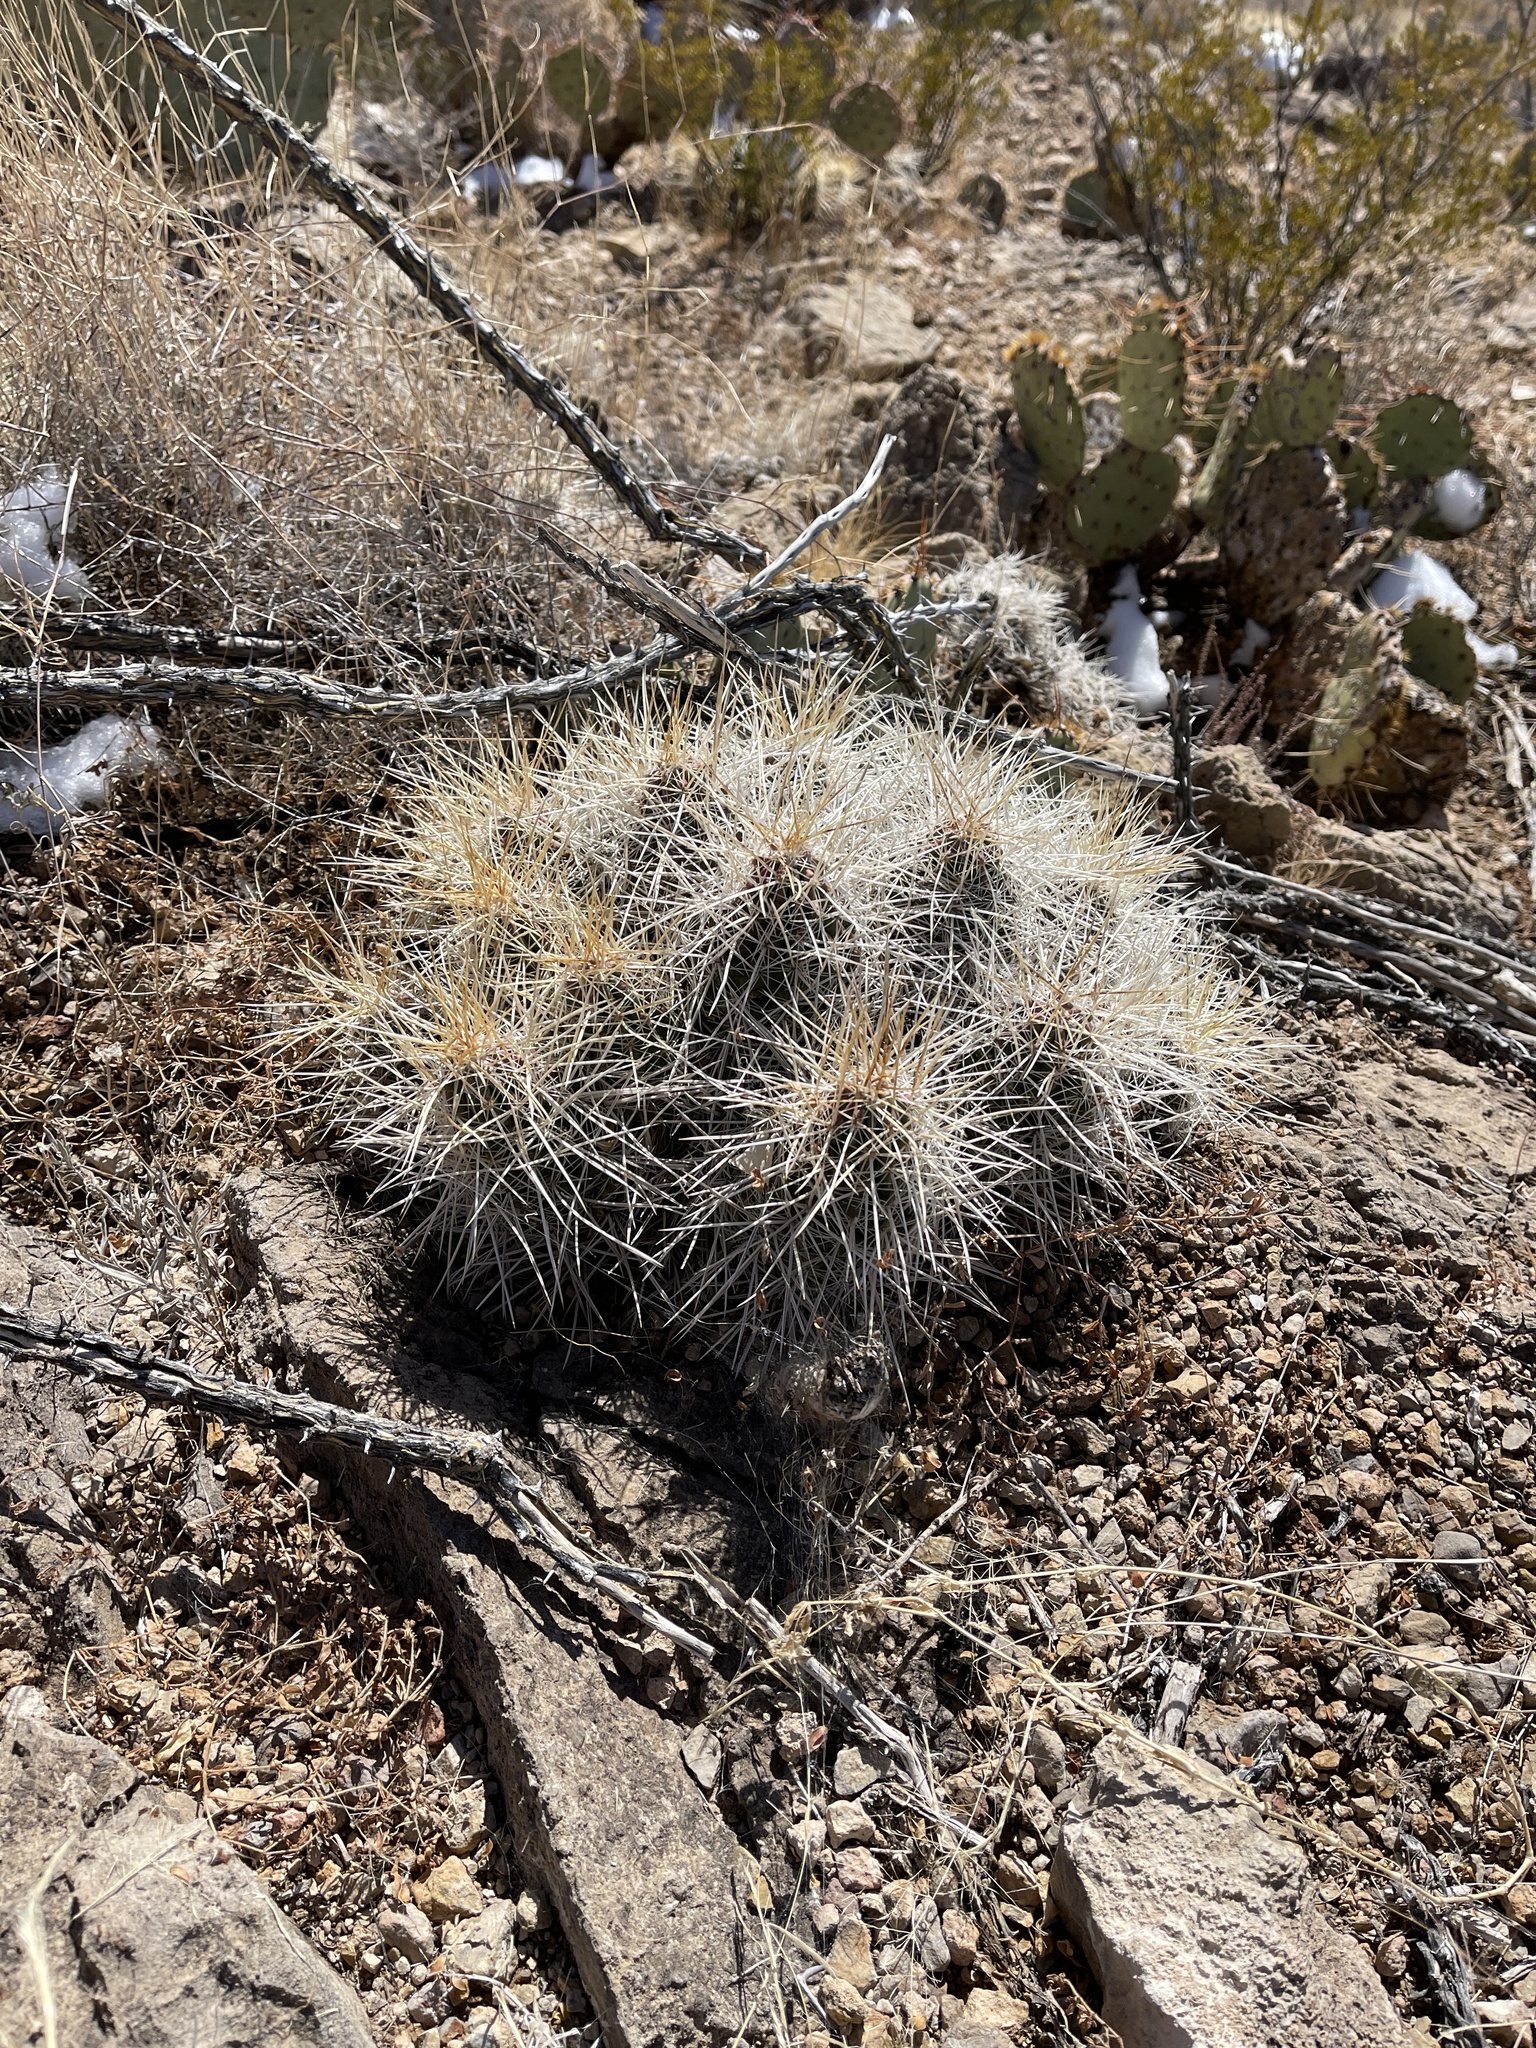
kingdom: Plantae
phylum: Tracheophyta
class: Magnoliopsida
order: Caryophyllales
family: Cactaceae
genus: Echinocereus
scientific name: Echinocereus stramineus
